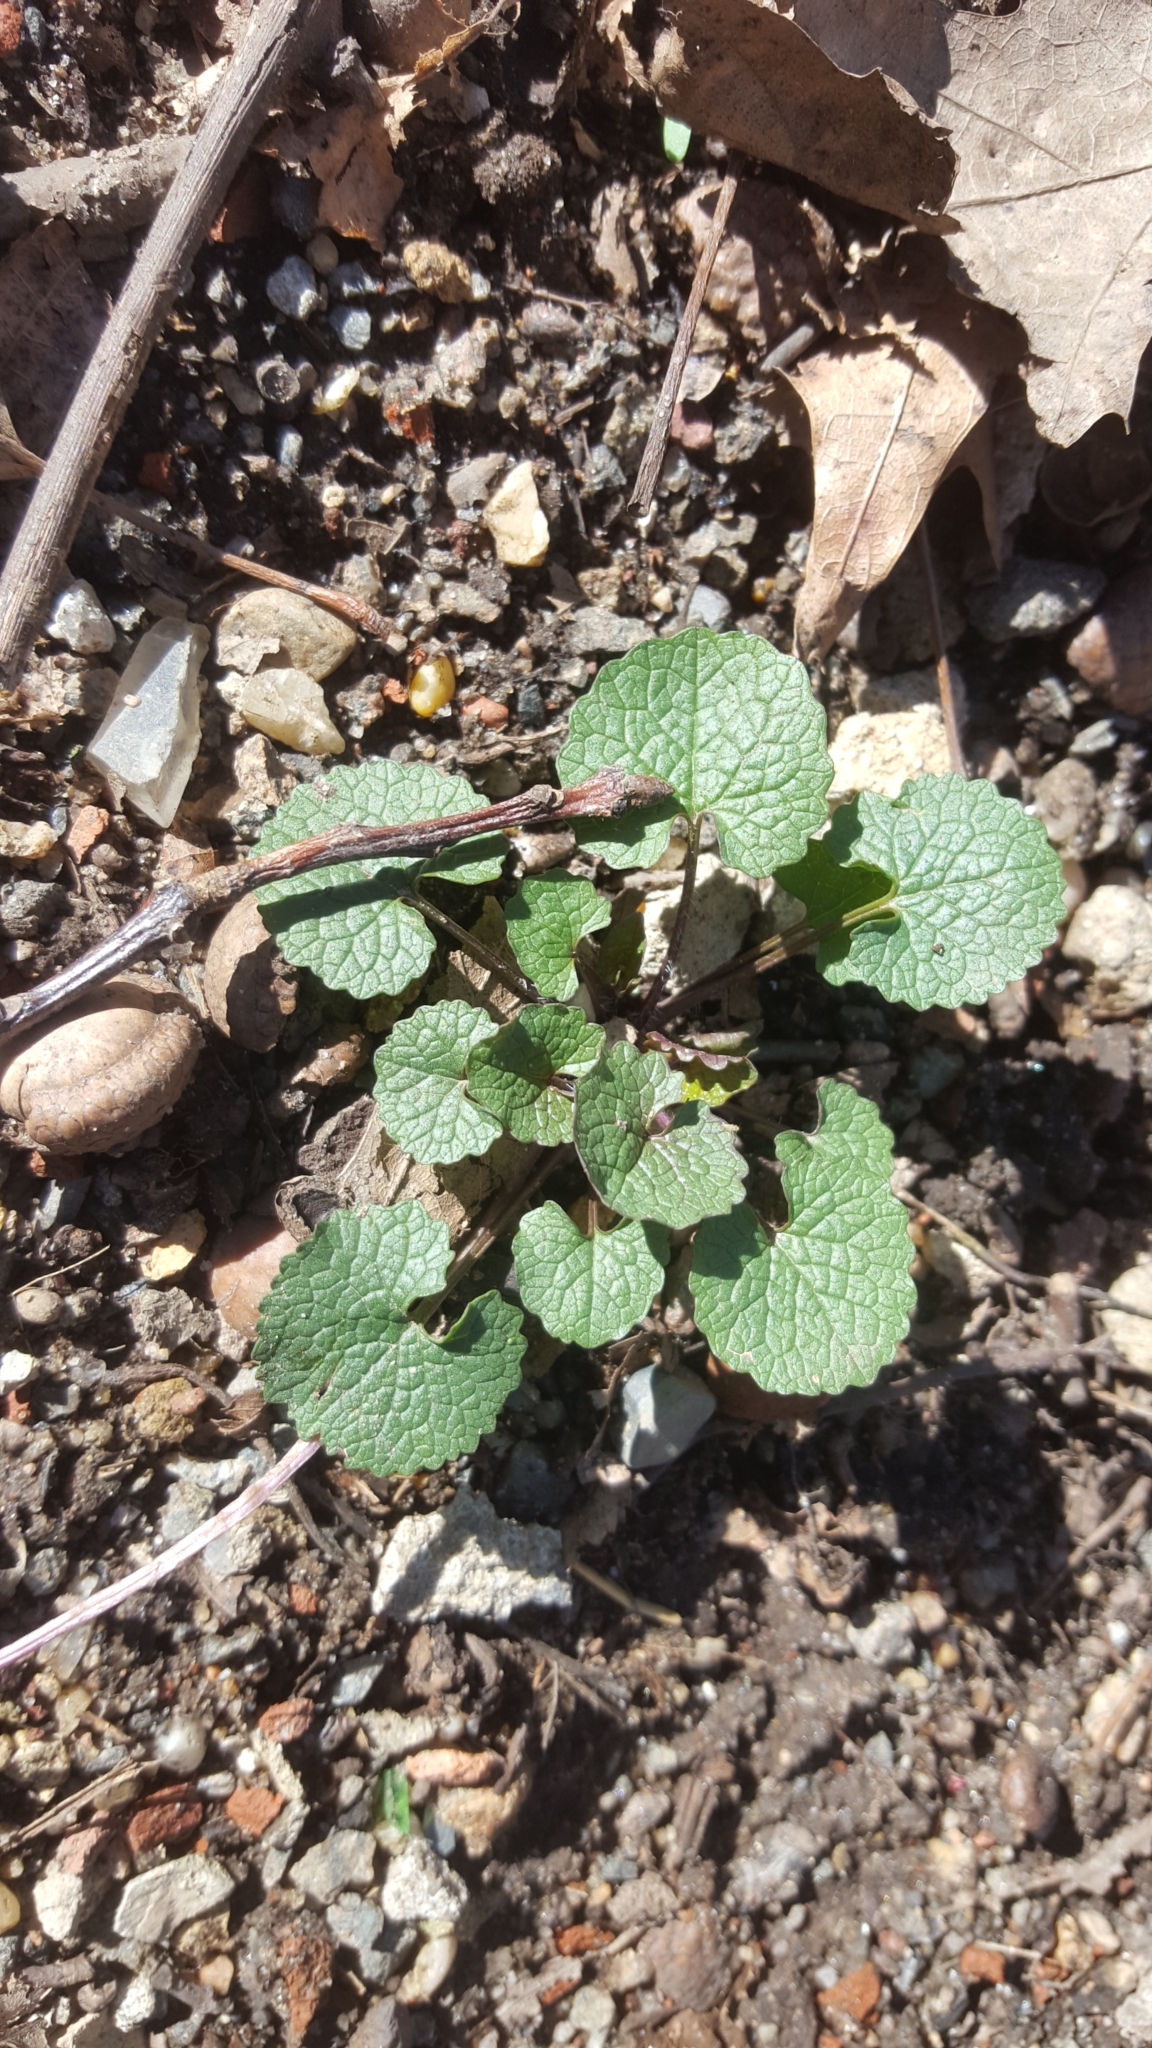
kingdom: Plantae
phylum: Tracheophyta
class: Magnoliopsida
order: Brassicales
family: Brassicaceae
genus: Alliaria
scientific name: Alliaria petiolata
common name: Garlic mustard
